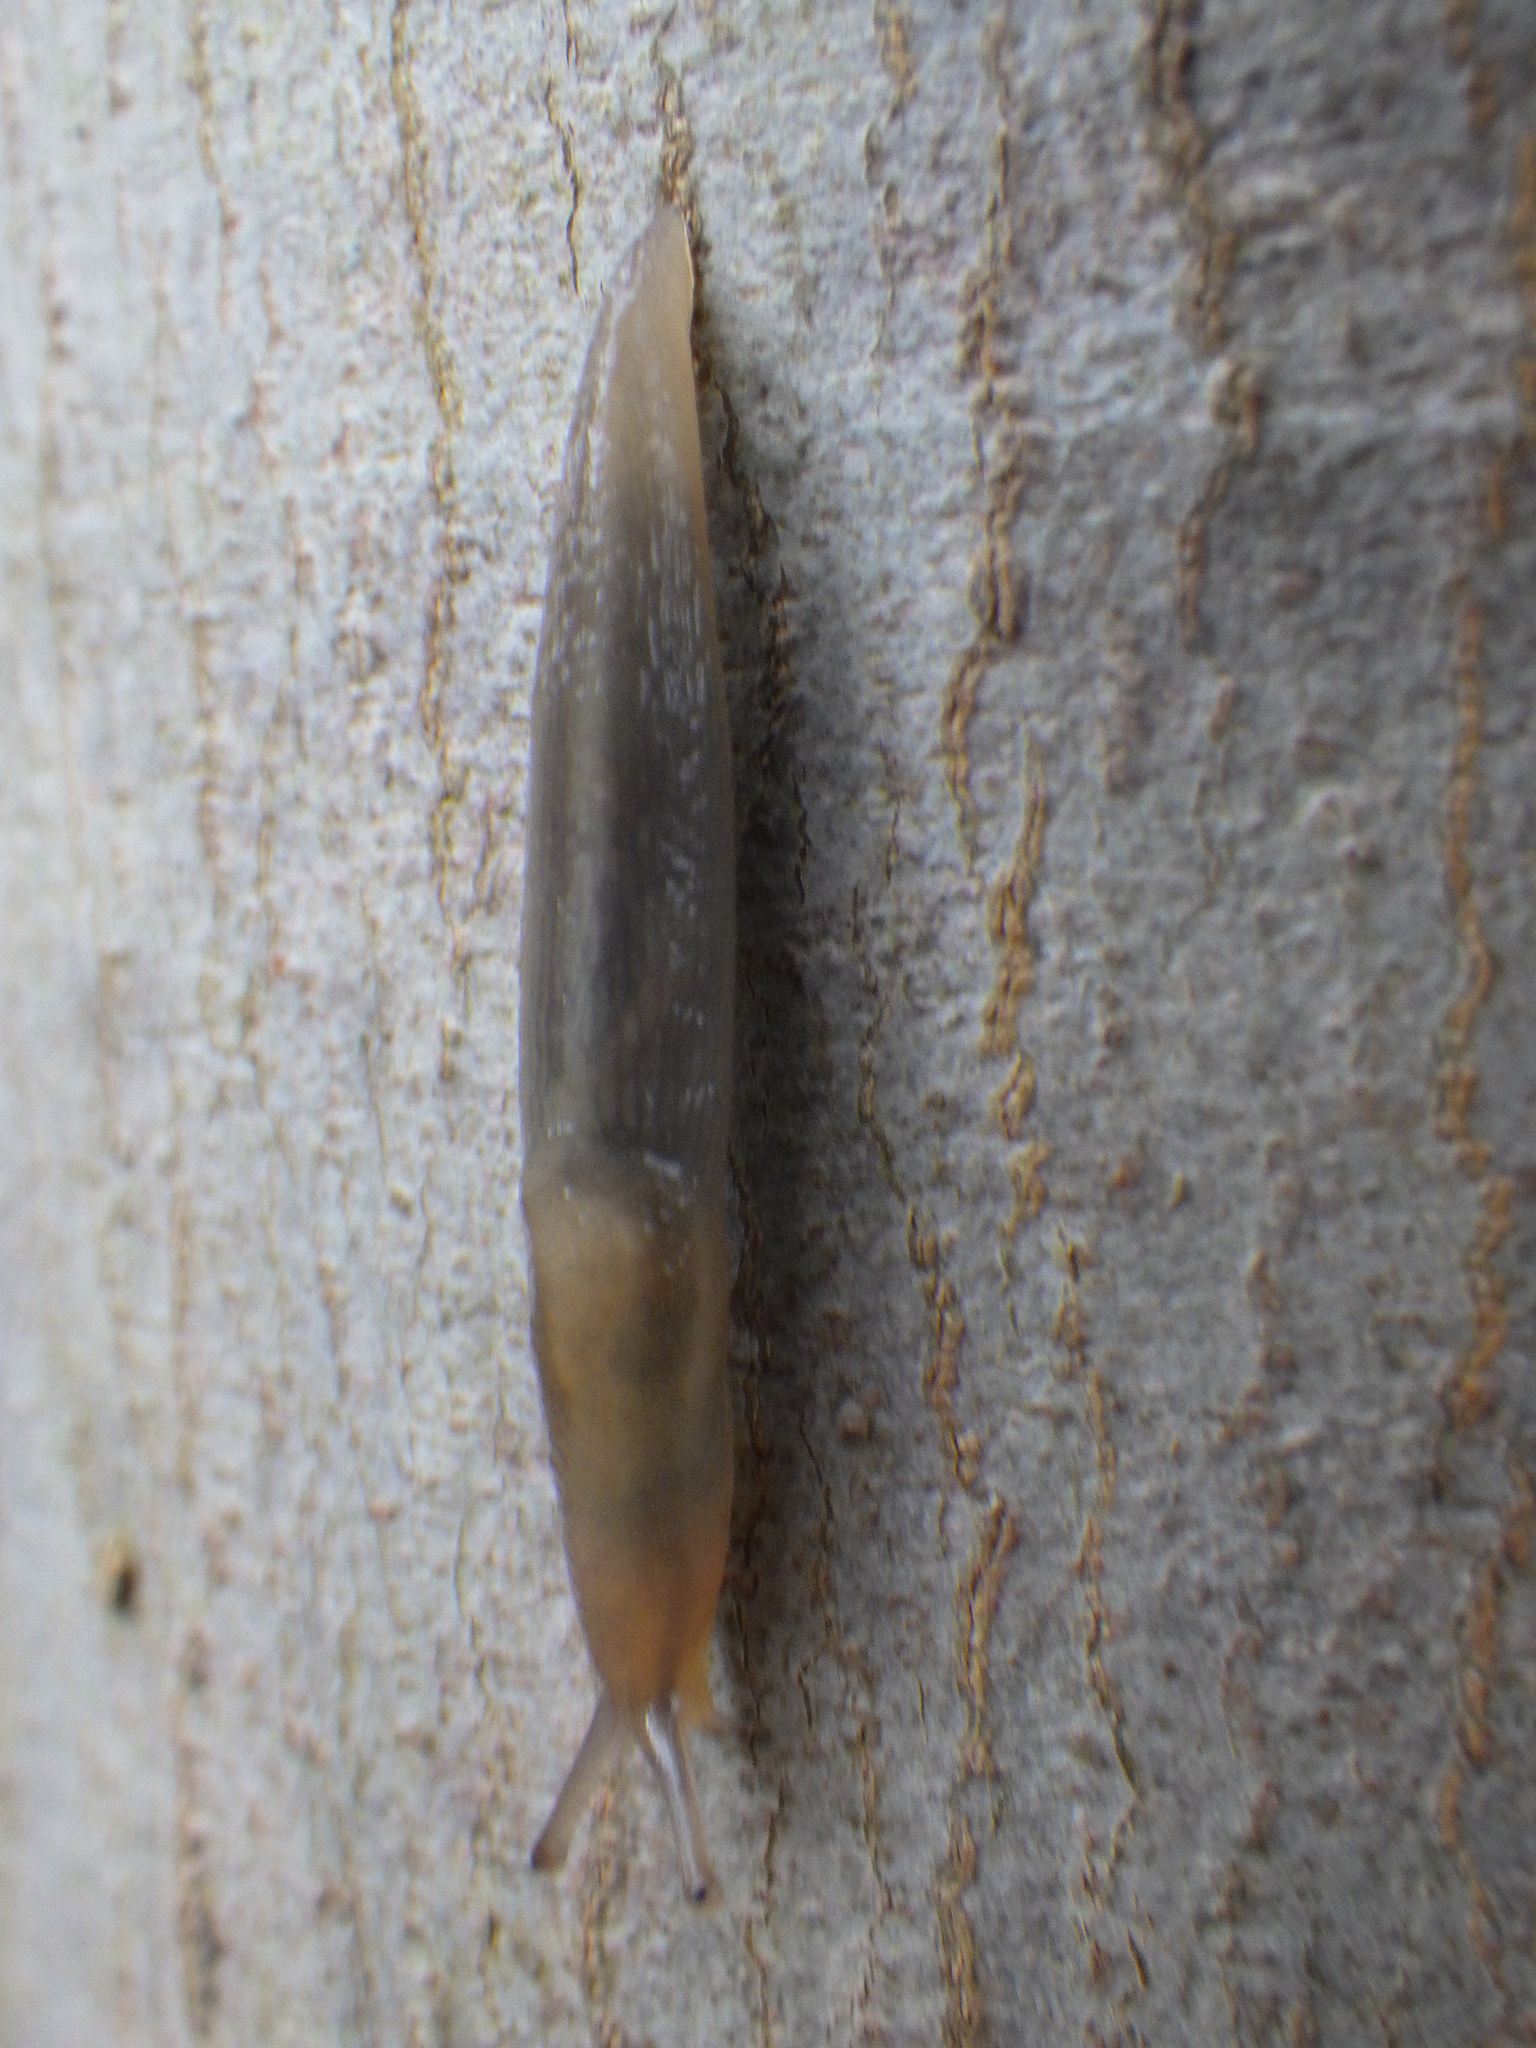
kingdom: Animalia
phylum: Mollusca
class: Gastropoda
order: Stylommatophora
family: Limacidae
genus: Lehmannia
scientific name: Lehmannia marginata
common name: Tree slug
